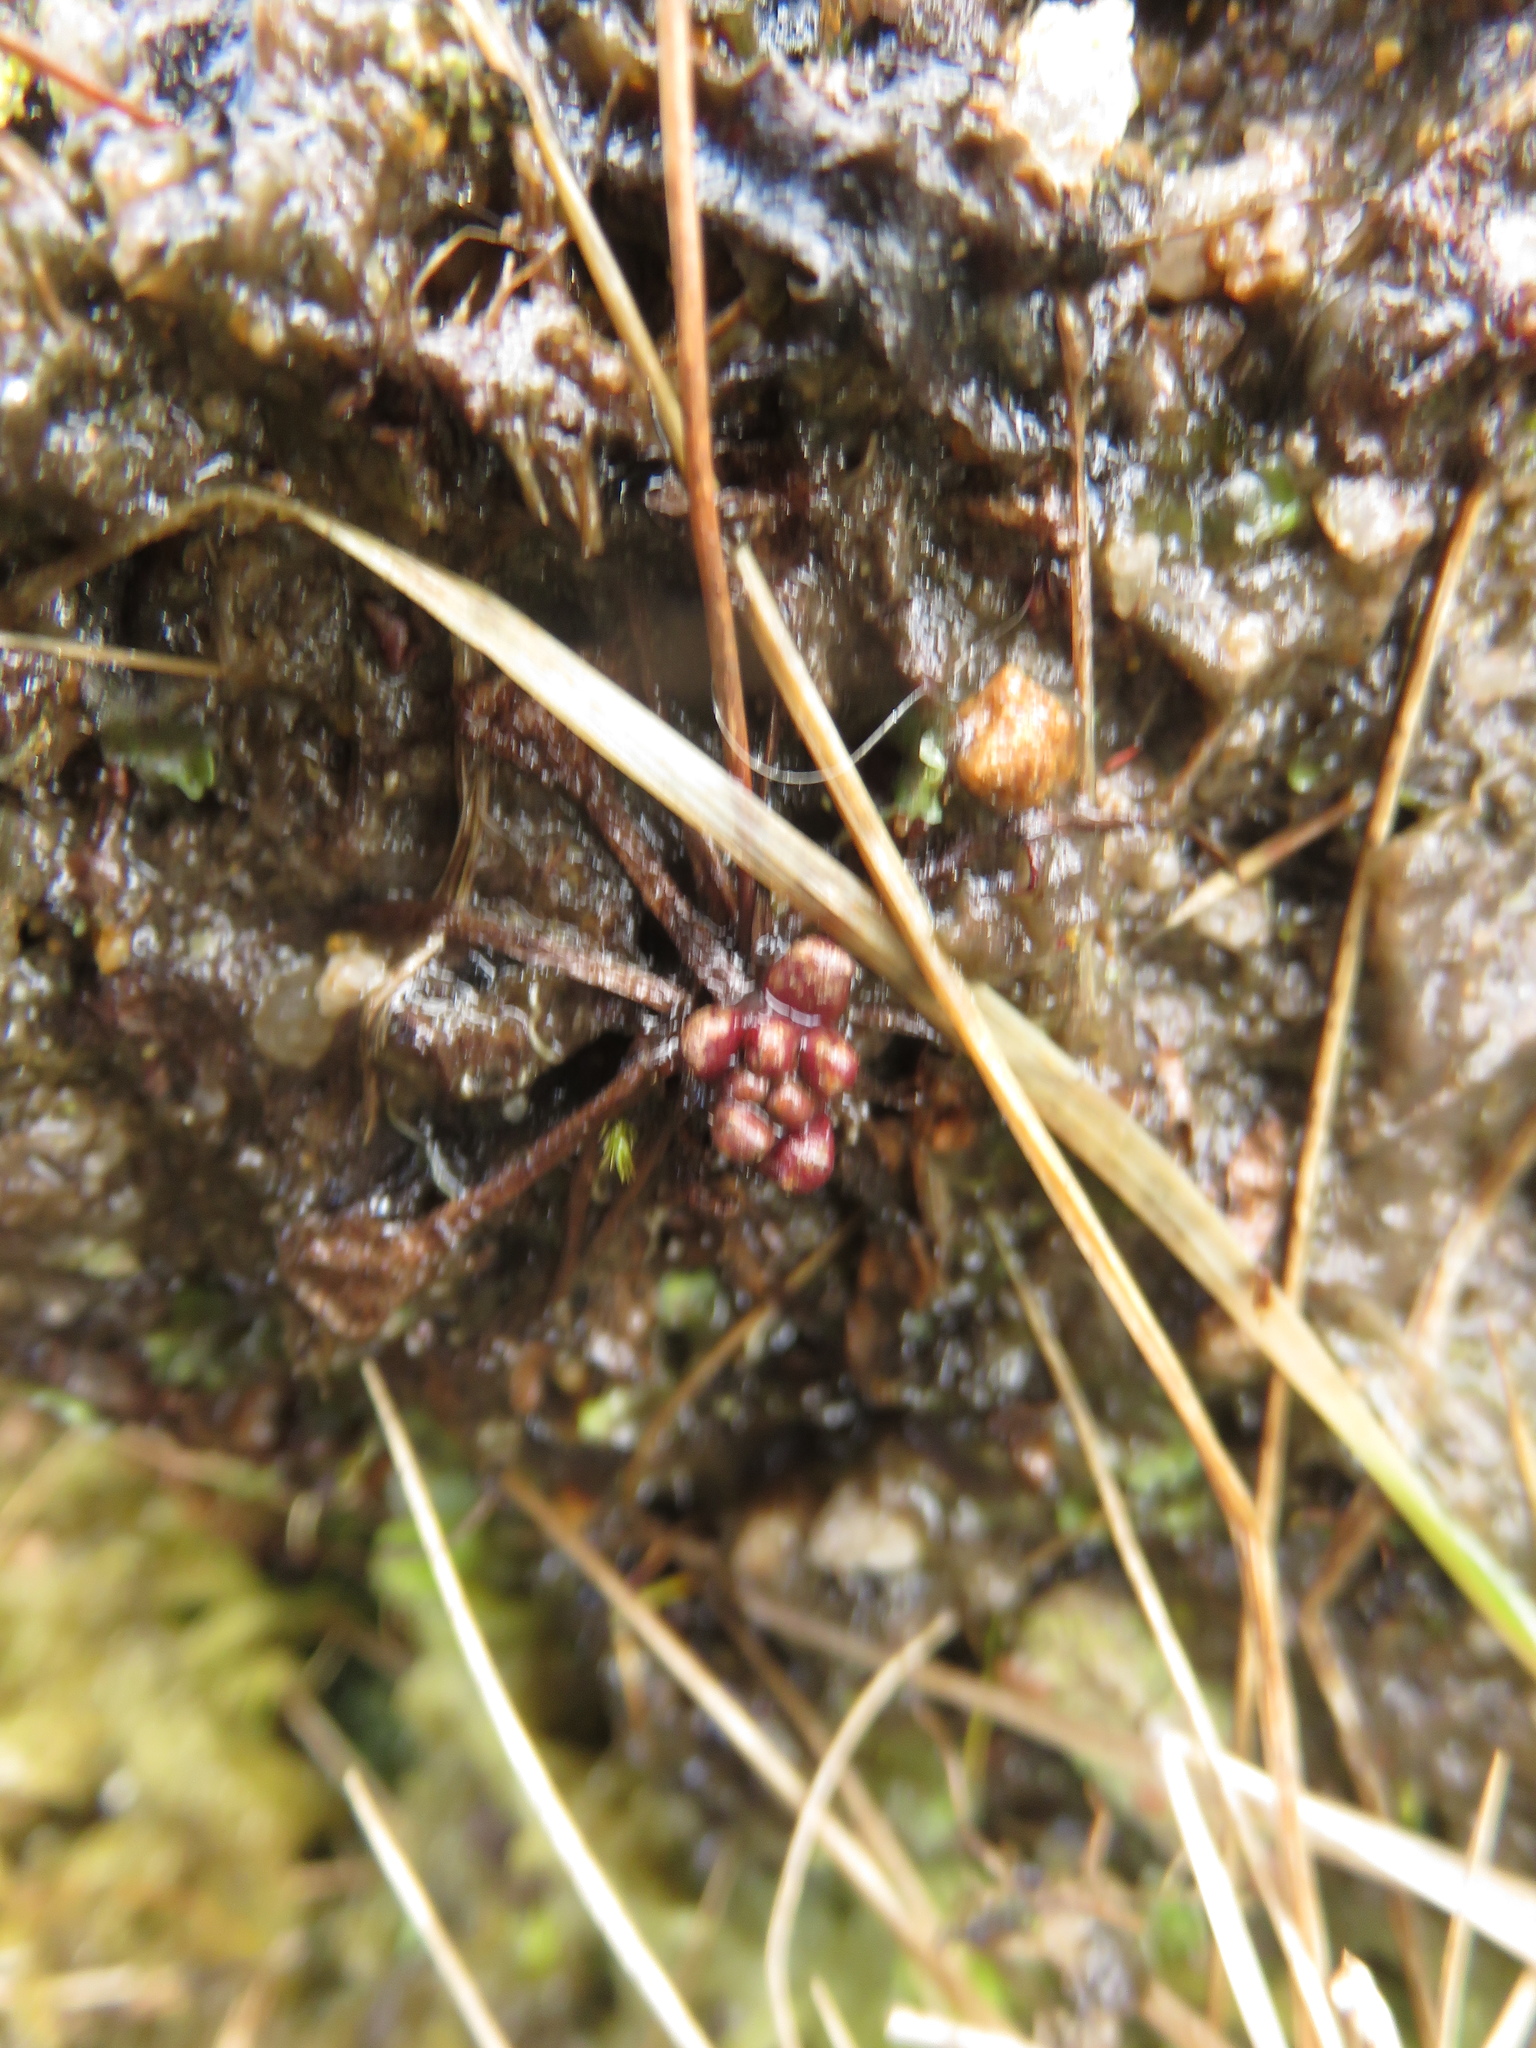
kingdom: Plantae
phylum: Tracheophyta
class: Magnoliopsida
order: Caryophyllales
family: Droseraceae
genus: Drosera
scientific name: Drosera rotundifolia
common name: Round-leaved sundew
